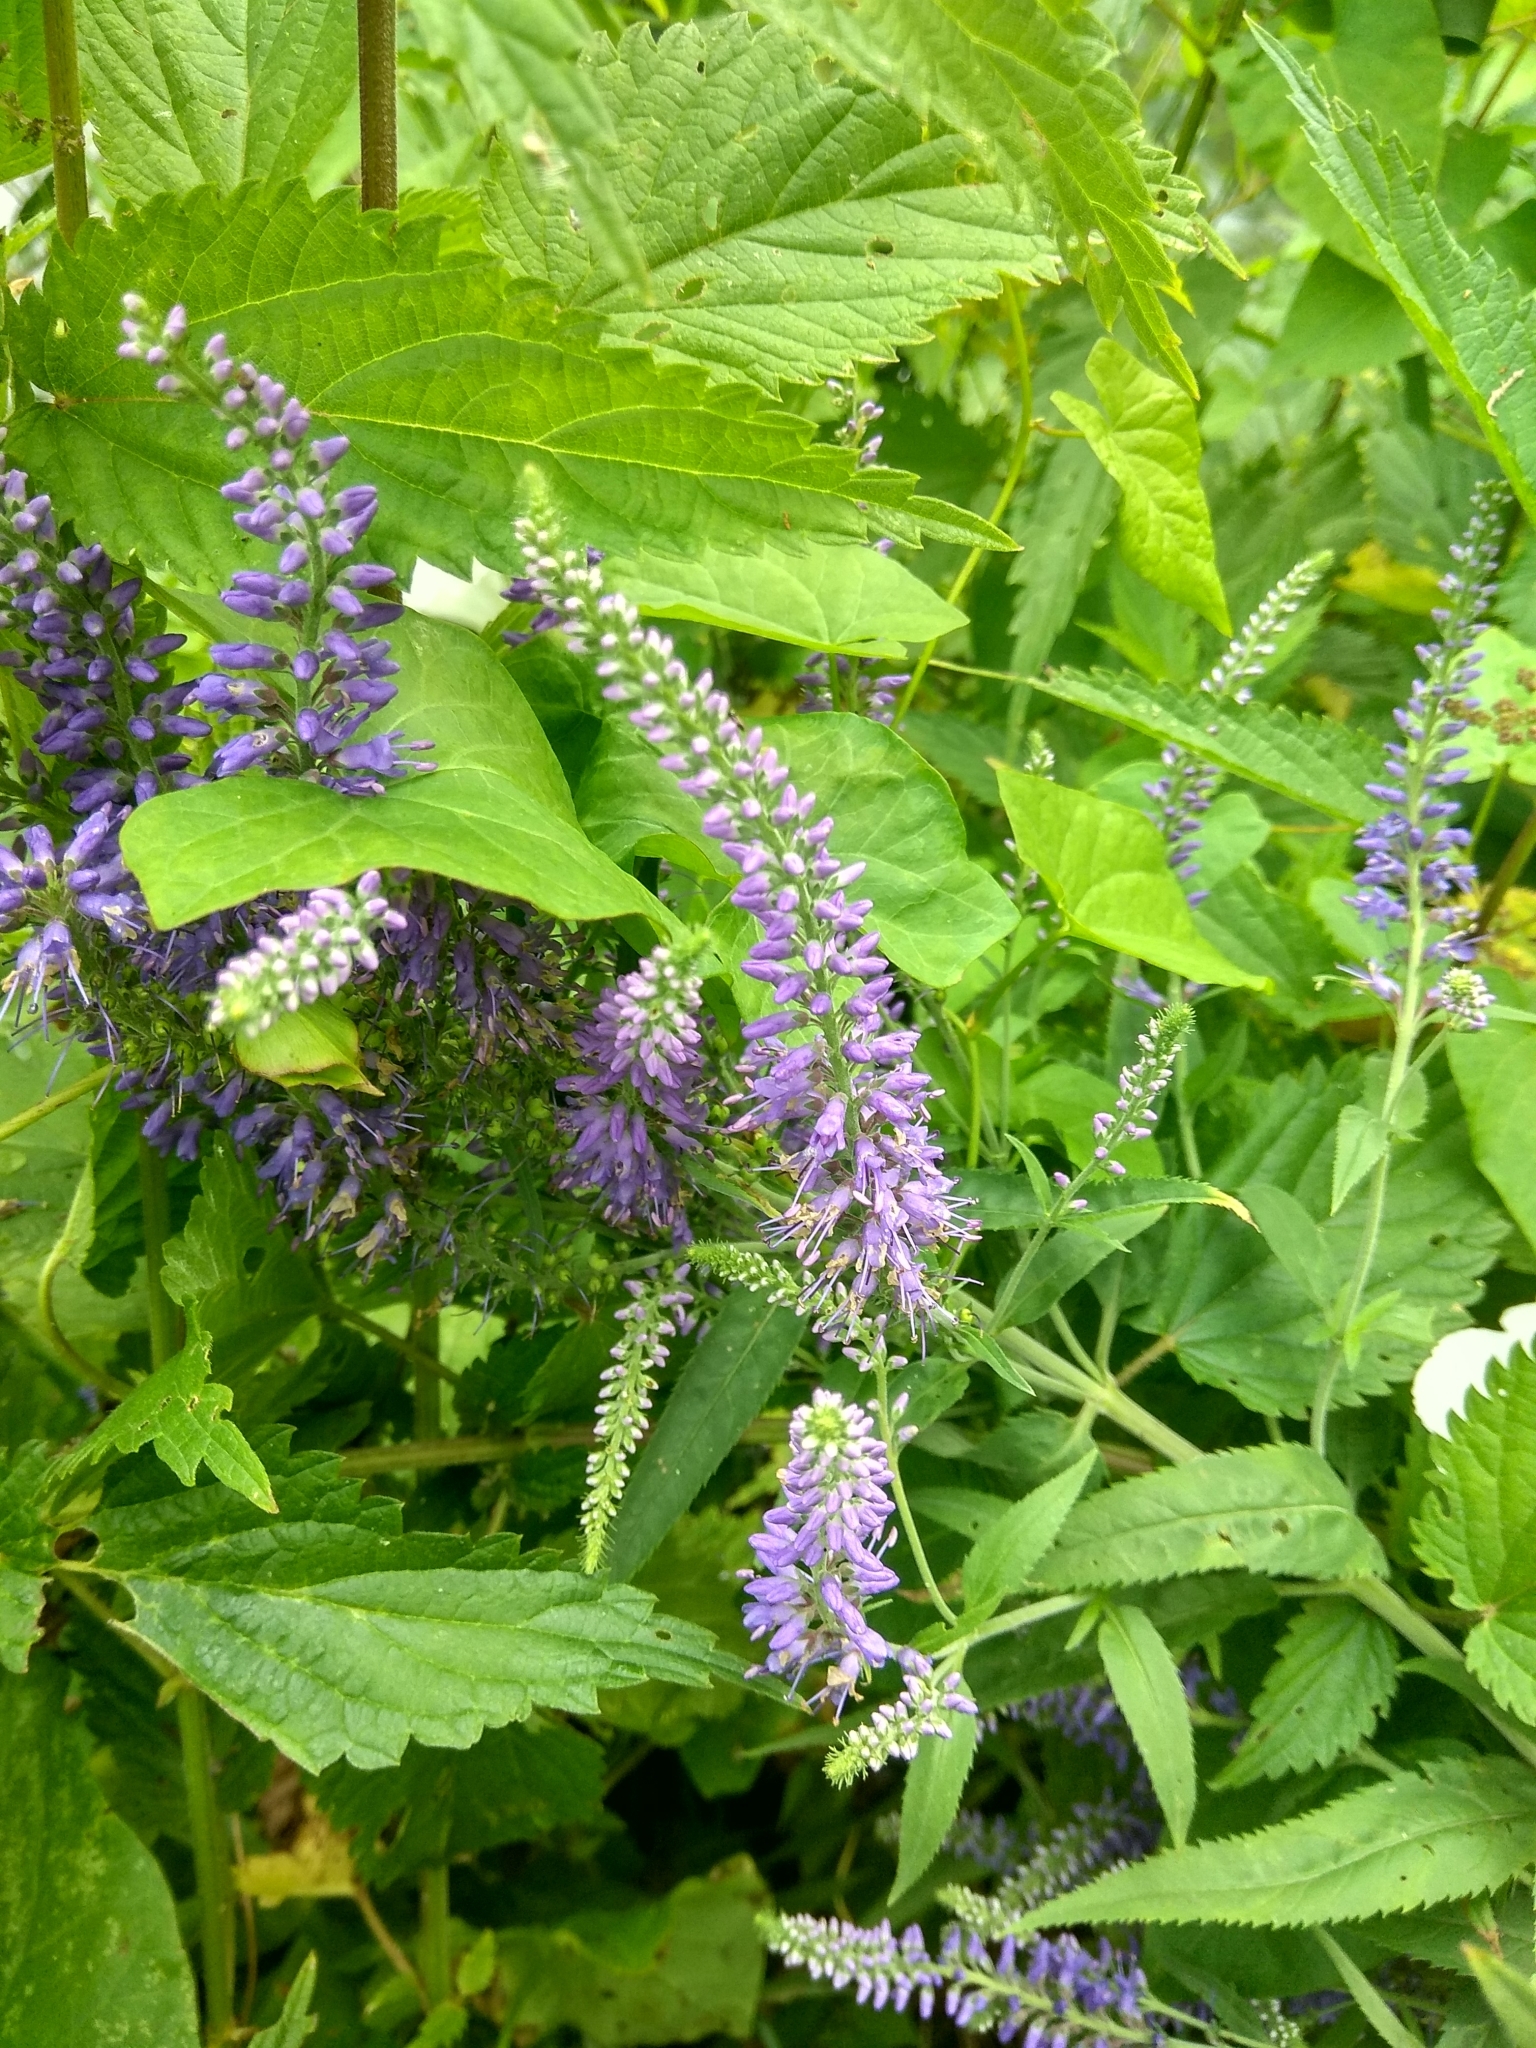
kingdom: Plantae
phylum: Tracheophyta
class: Magnoliopsida
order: Lamiales
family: Plantaginaceae
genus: Veronica
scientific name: Veronica longifolia
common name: Garden speedwell
